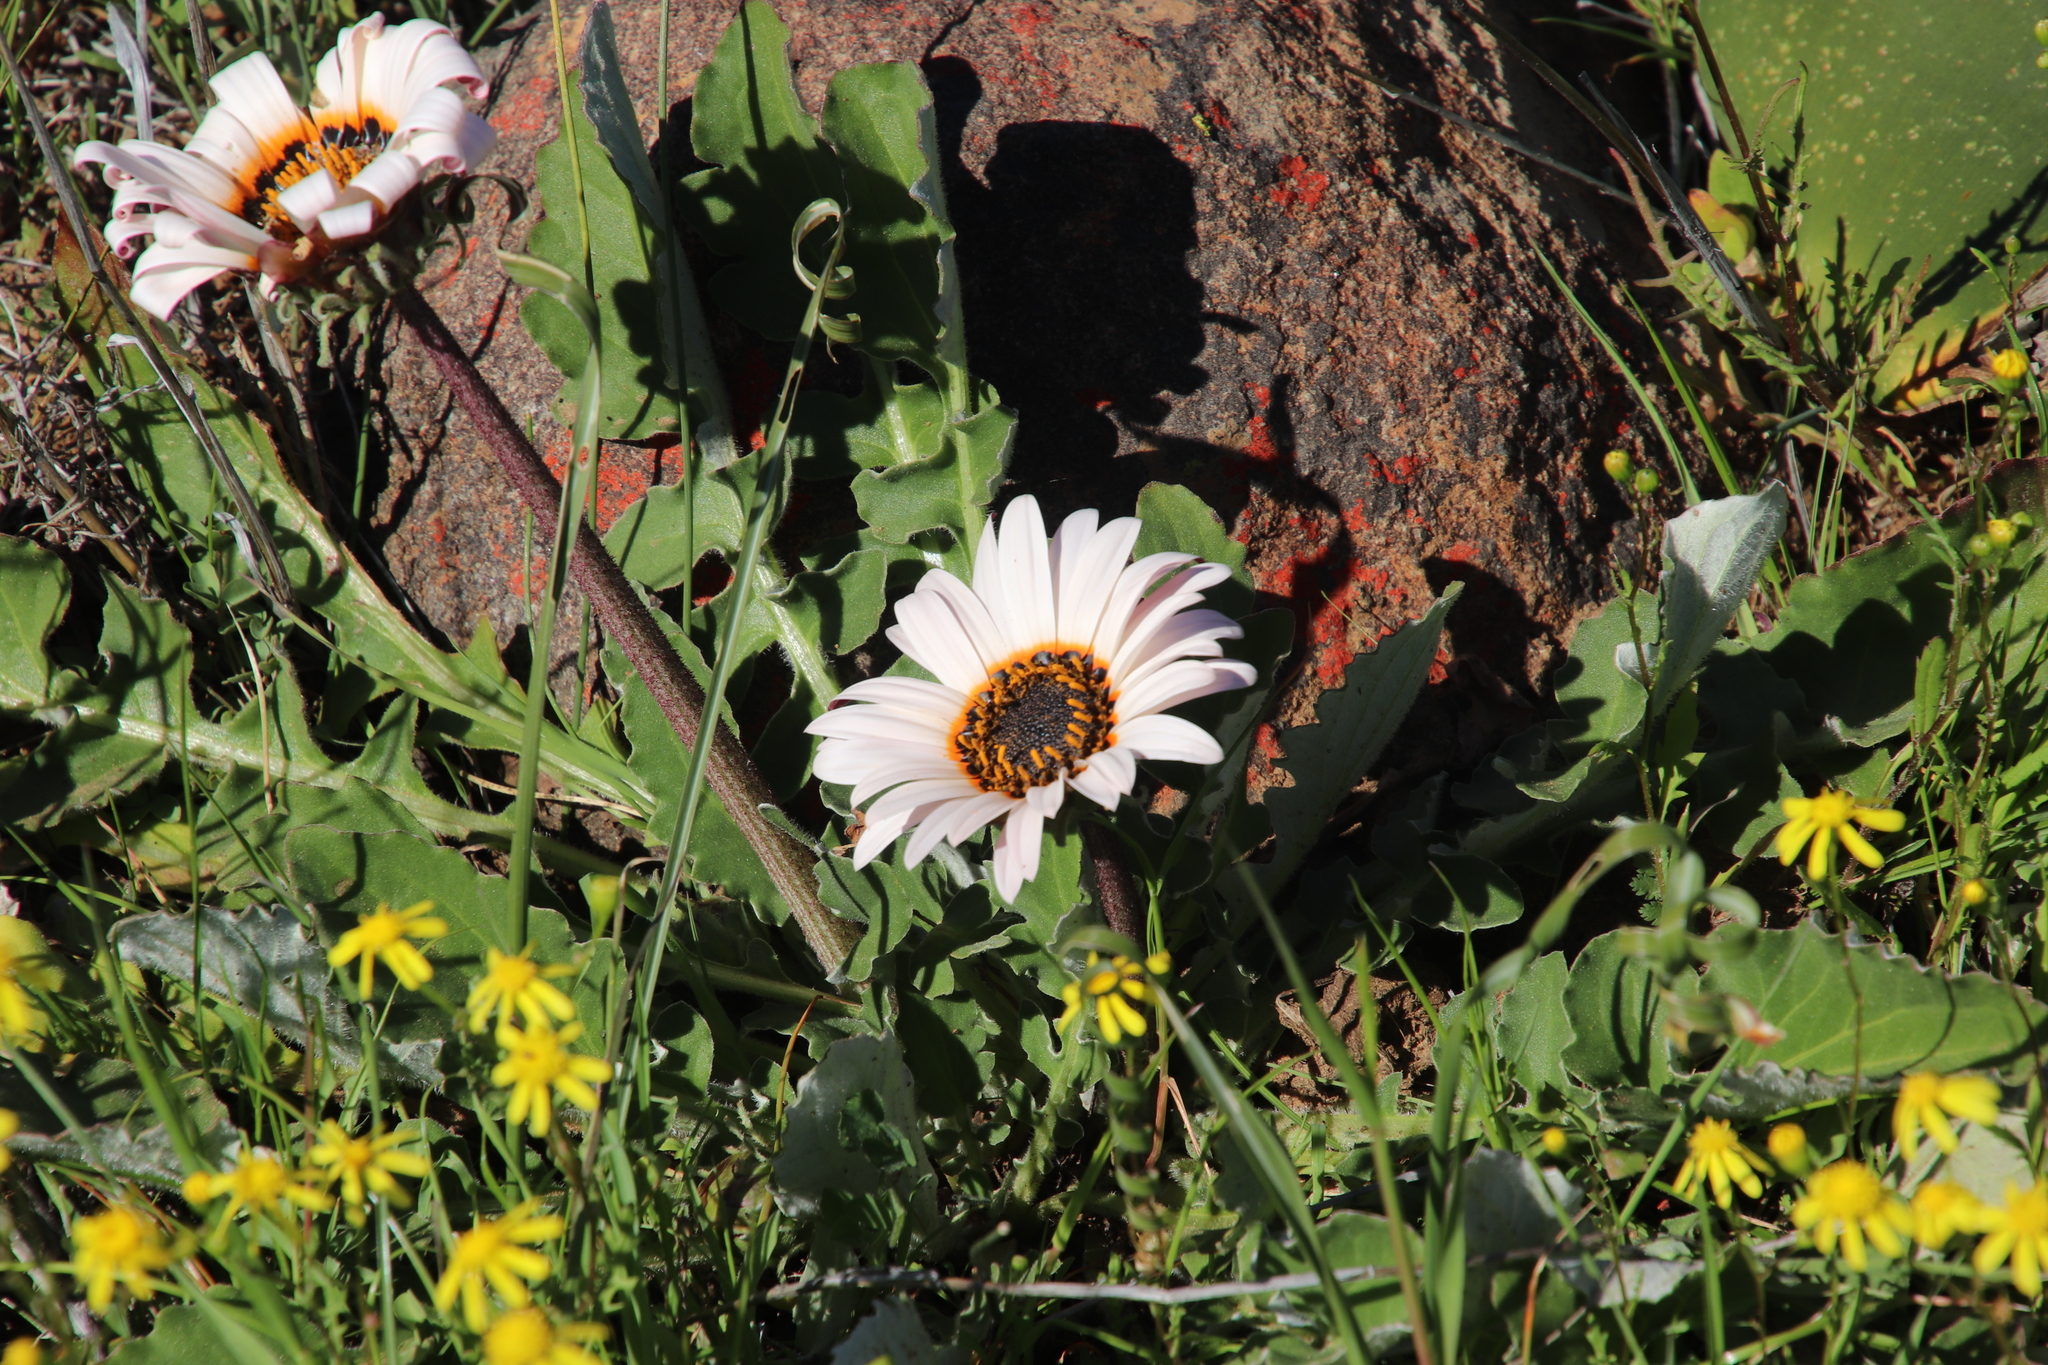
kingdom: Plantae
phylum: Tracheophyta
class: Magnoliopsida
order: Asterales
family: Asteraceae
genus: Arctotis
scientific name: Arctotis acaulis
